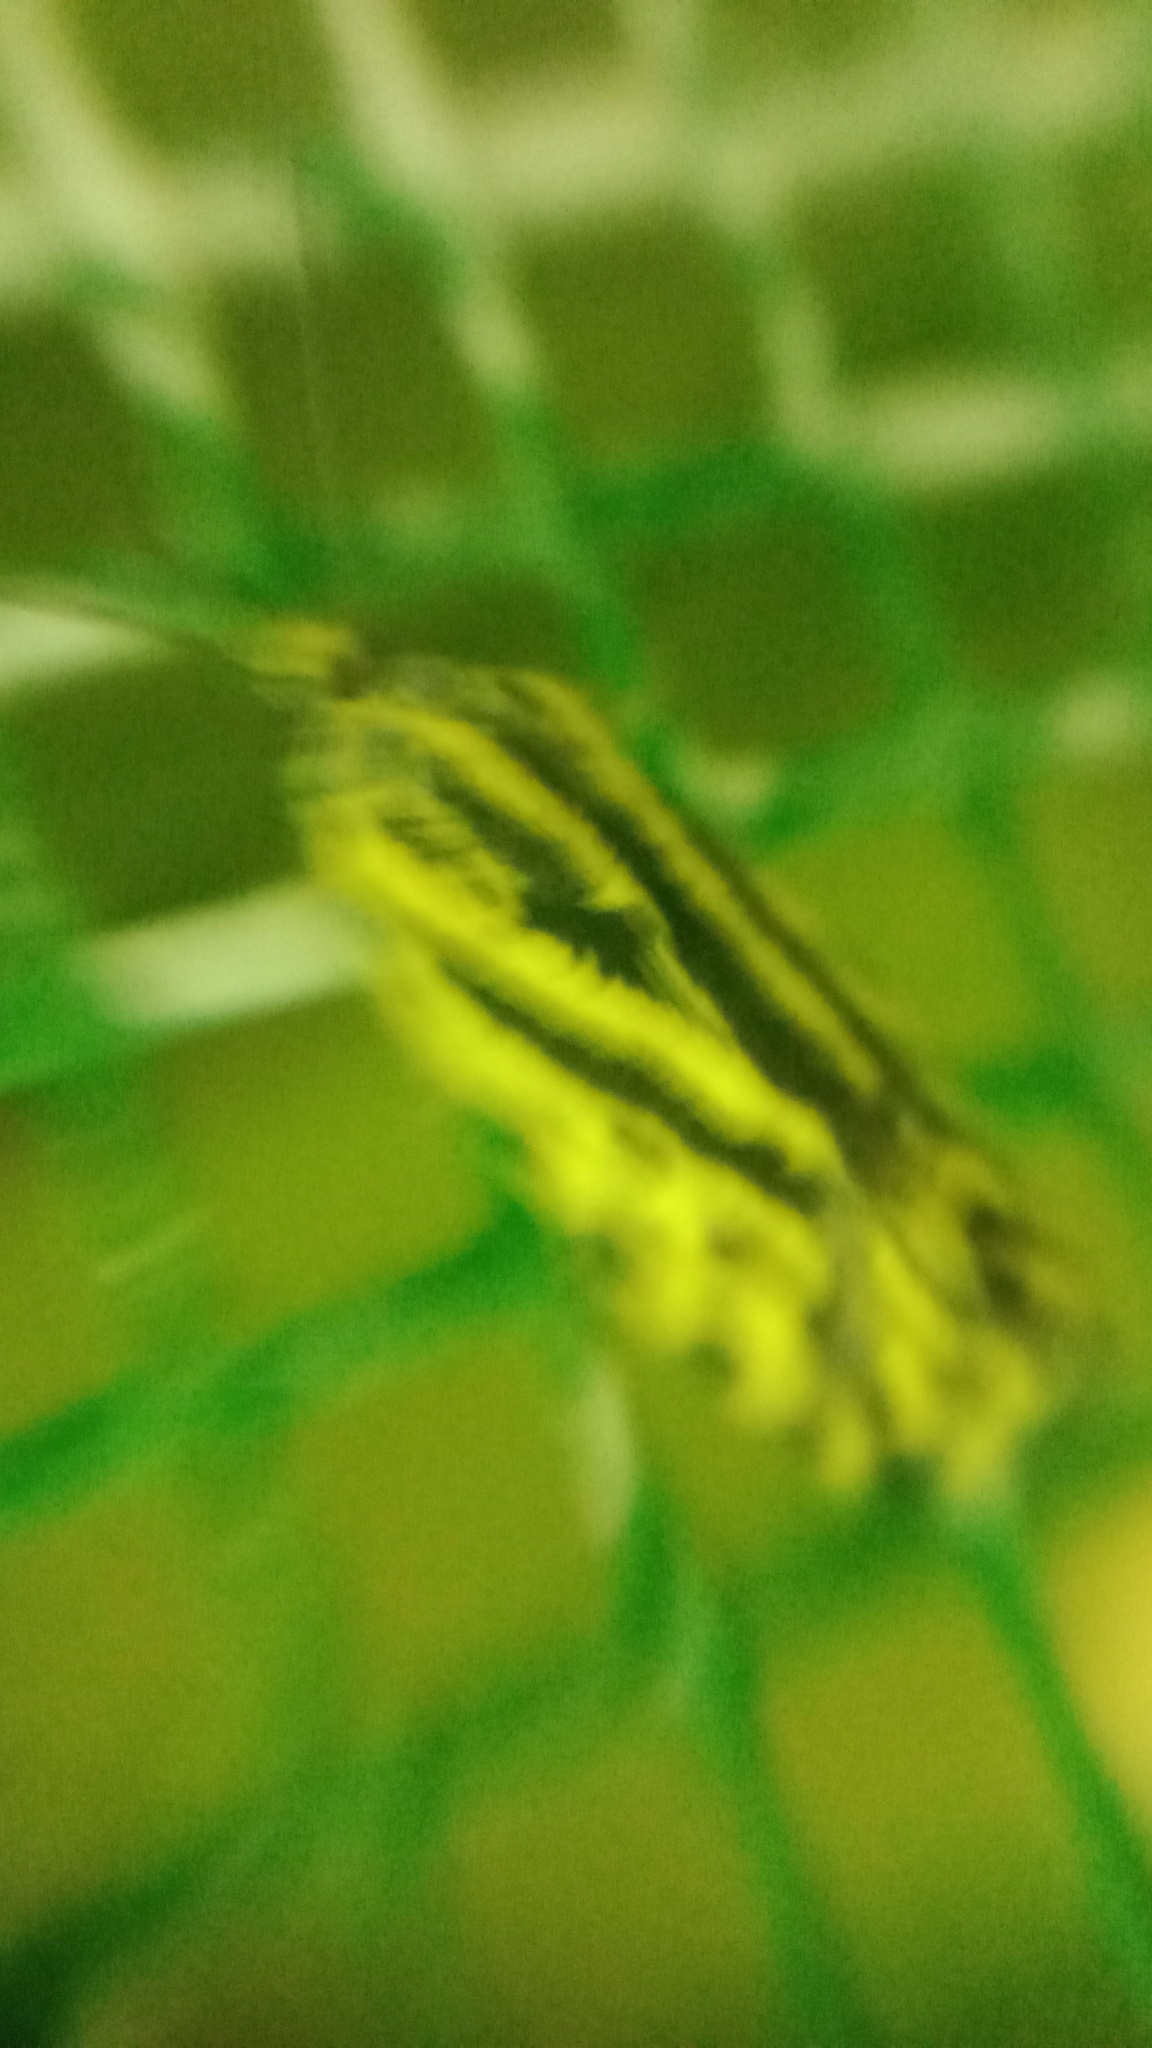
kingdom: Animalia
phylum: Arthropoda
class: Insecta
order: Lepidoptera
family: Noctuidae
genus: Acontia
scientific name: Acontia trabealis
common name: Spotted sulphur
